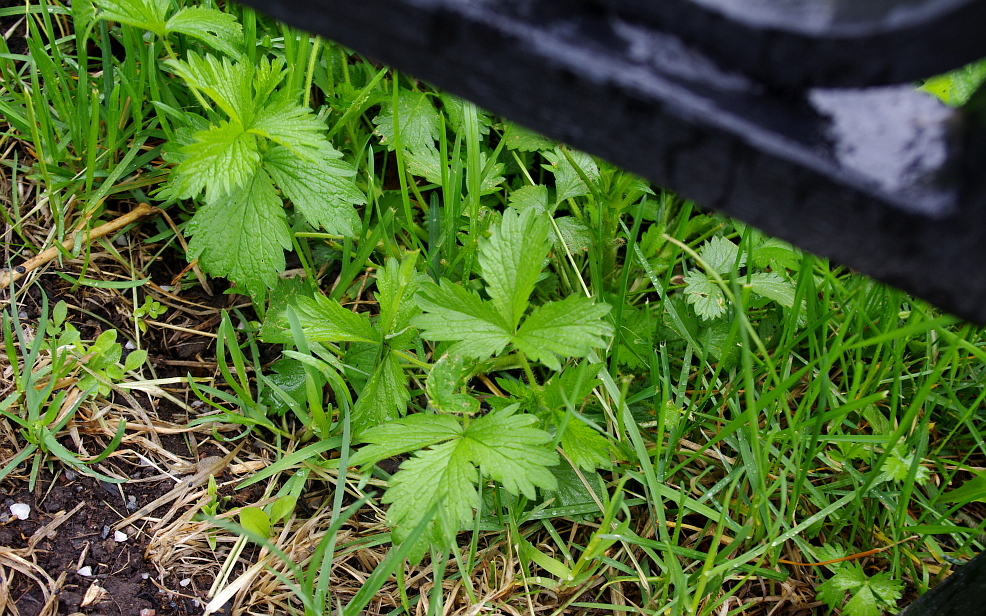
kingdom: Plantae
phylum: Tracheophyta
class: Magnoliopsida
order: Rosales
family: Rosaceae
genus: Potentilla
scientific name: Potentilla norvegica
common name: Ternate-leaved cinquefoil
